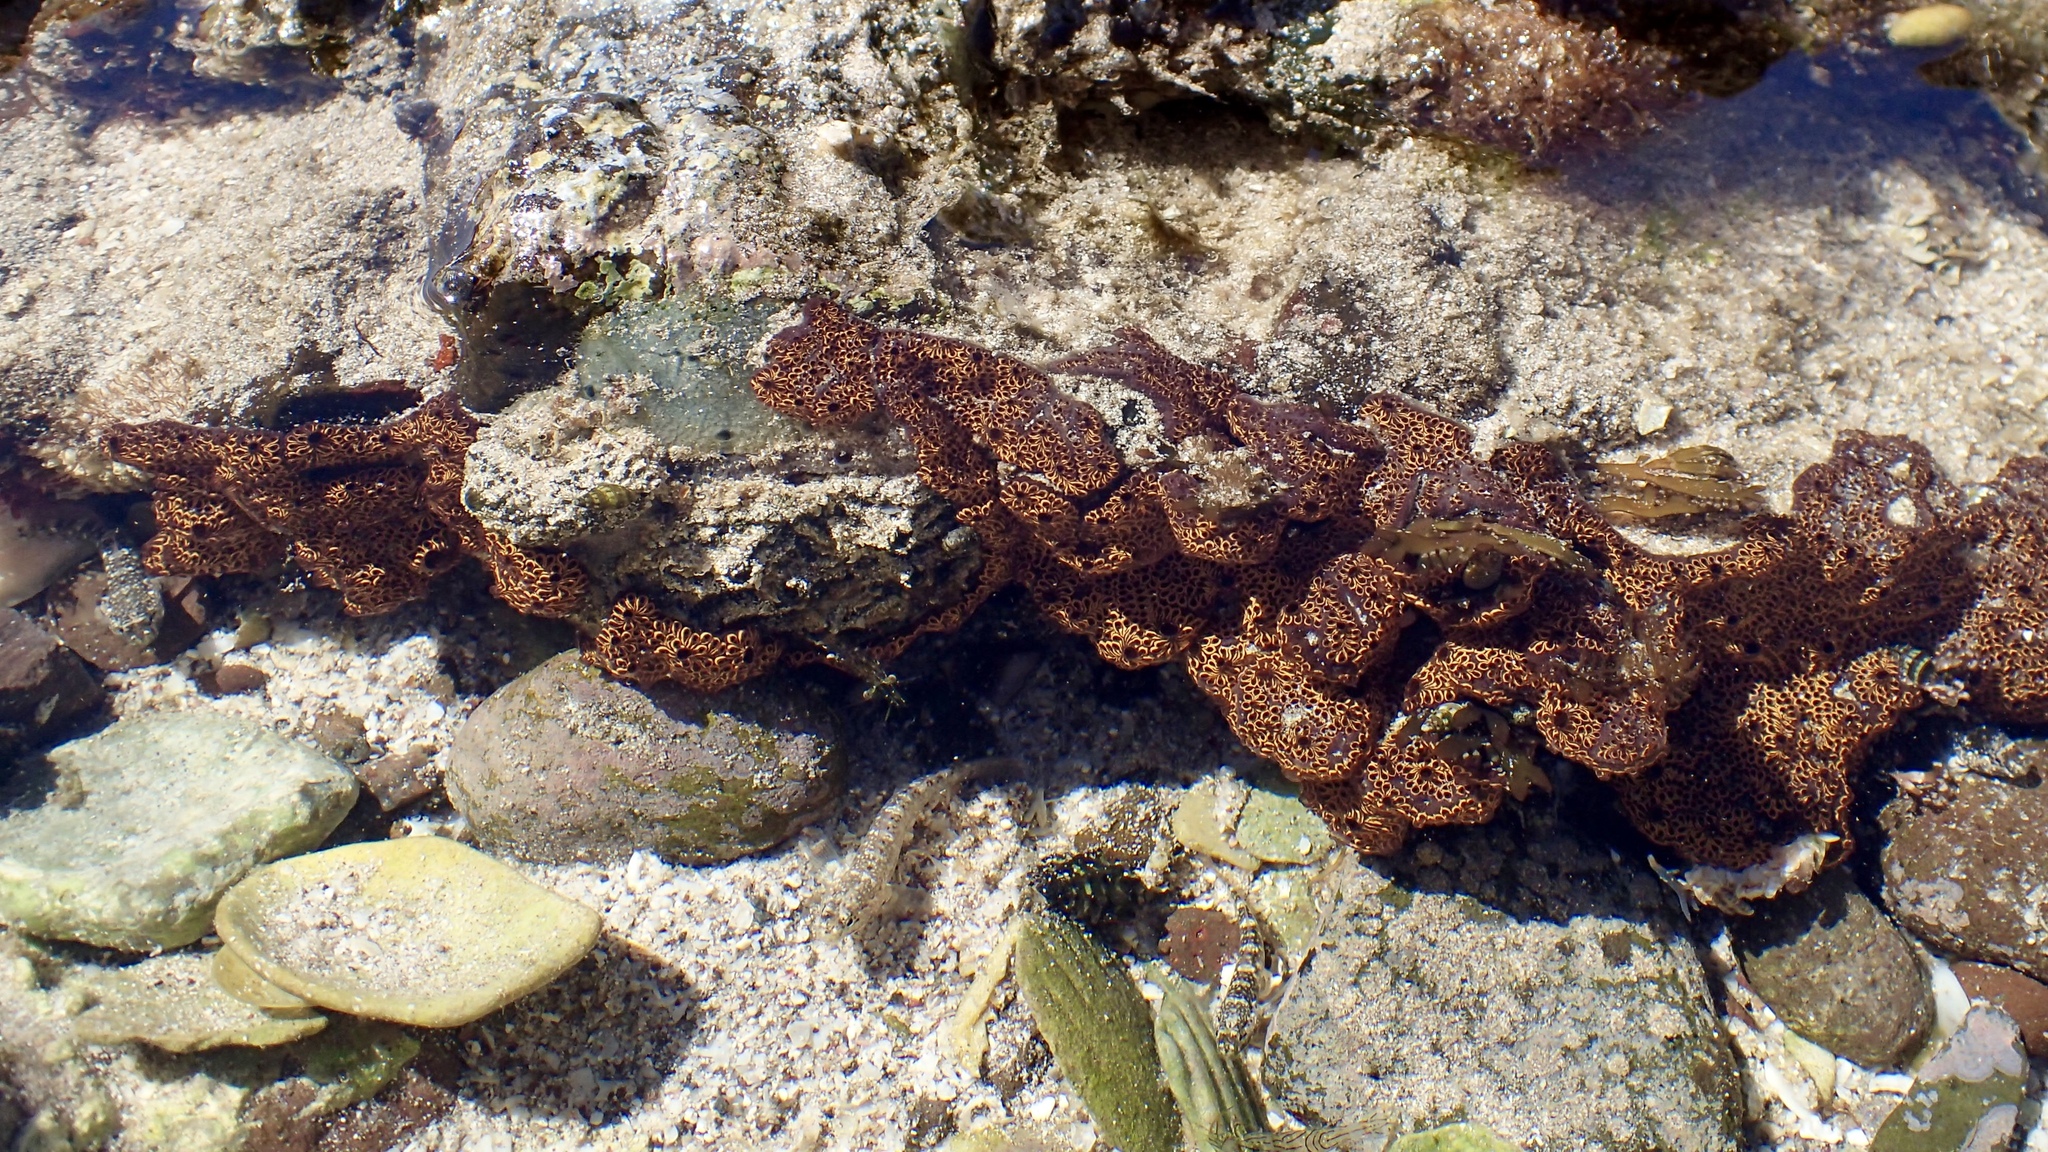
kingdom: Animalia
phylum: Chordata
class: Ascidiacea
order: Stolidobranchia
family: Styelidae
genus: Botrylloides
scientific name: Botrylloides niger
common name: Black synascidia
